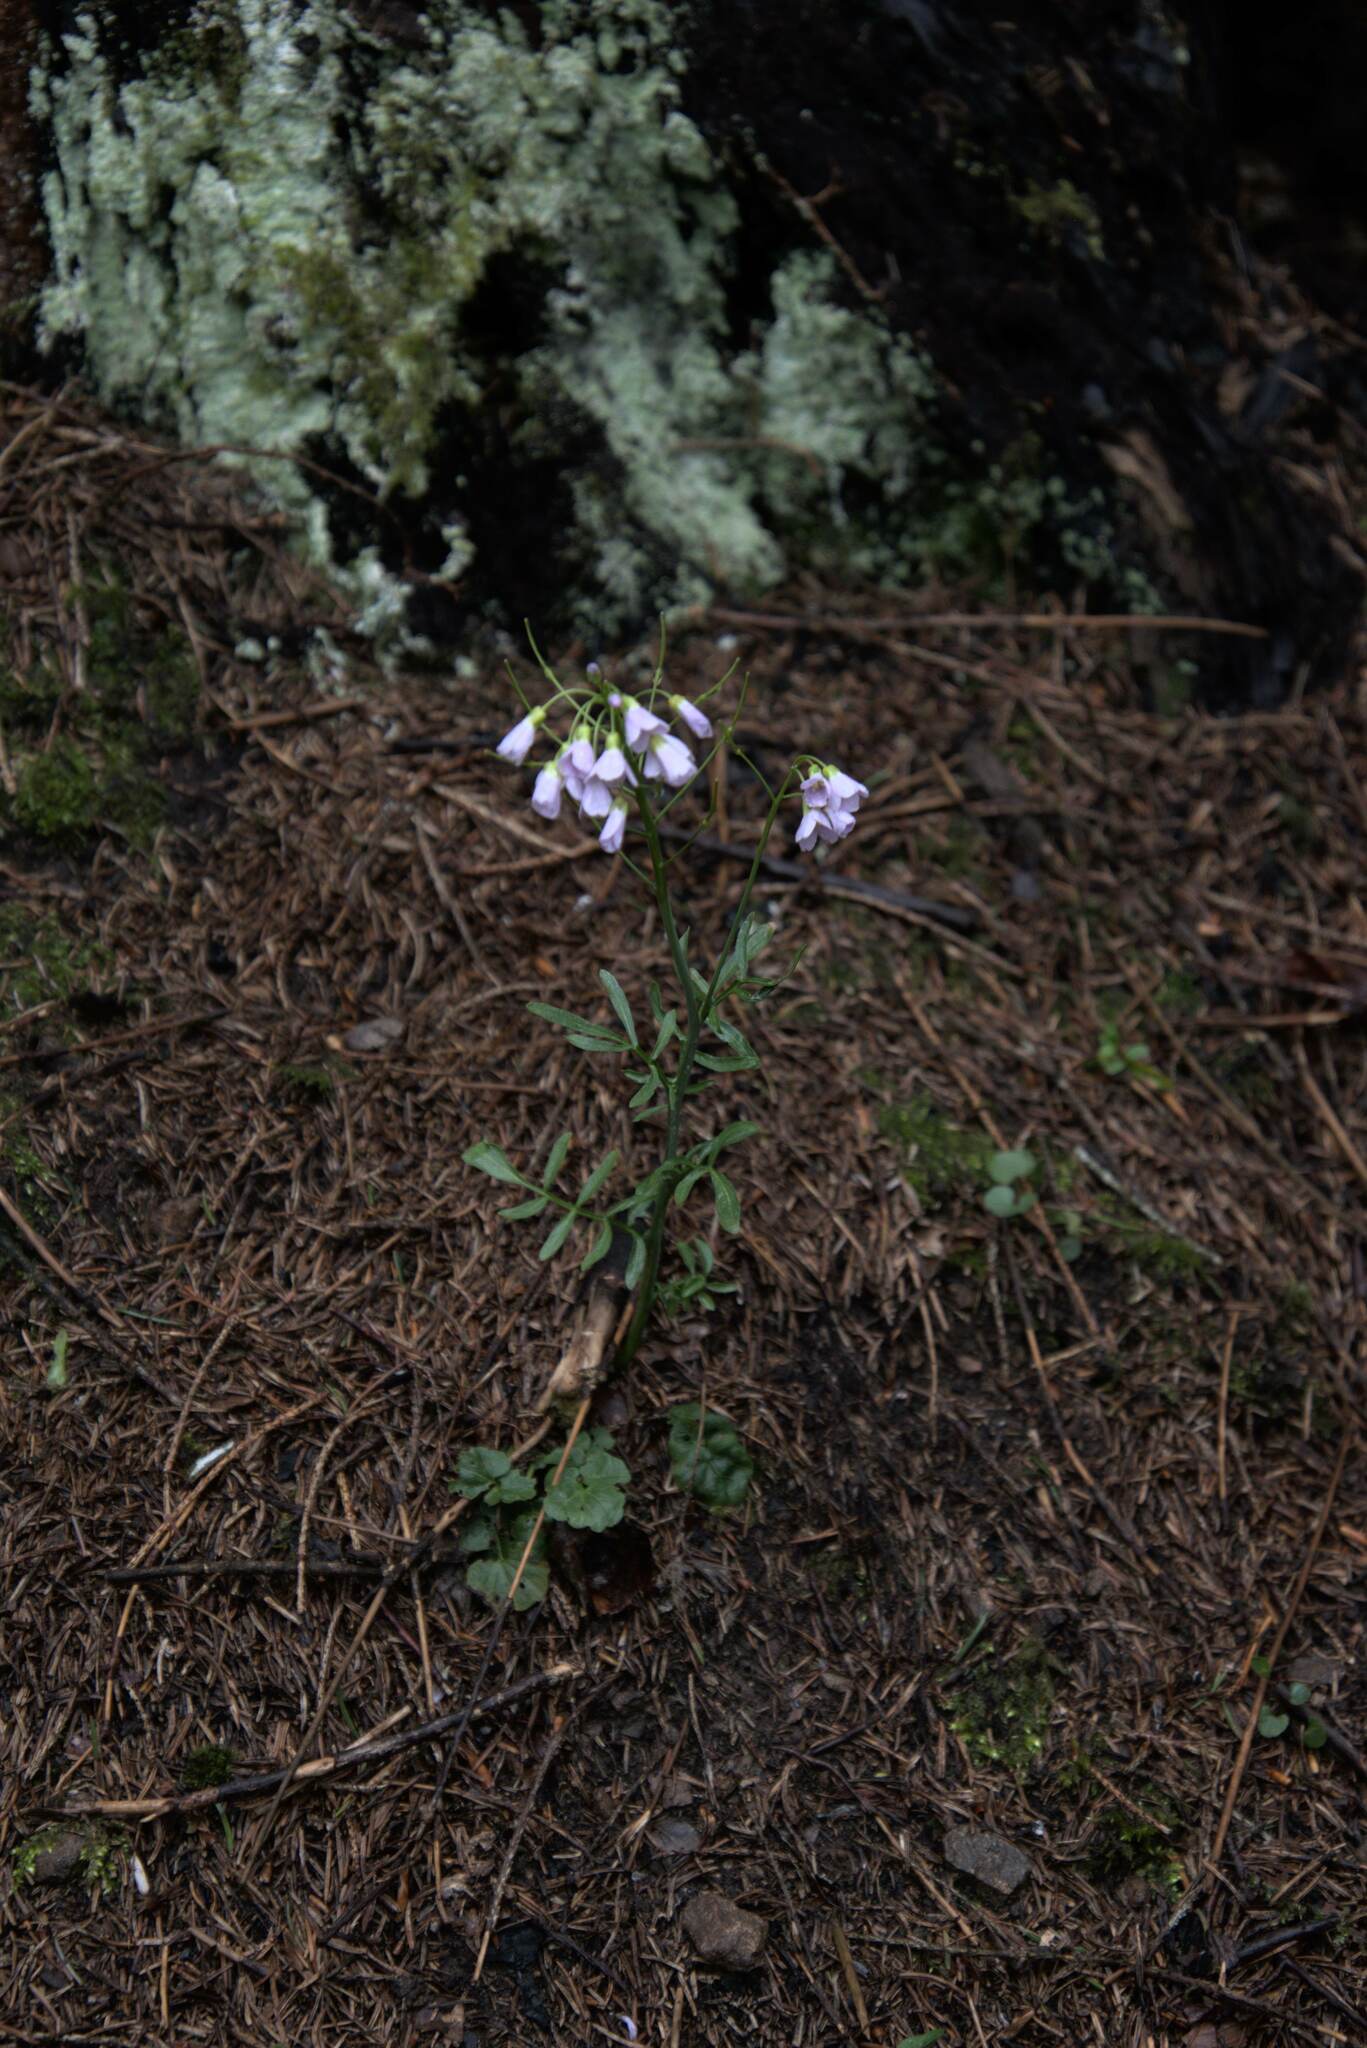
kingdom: Plantae
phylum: Tracheophyta
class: Magnoliopsida
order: Brassicales
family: Brassicaceae
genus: Cardamine
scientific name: Cardamine pratensis
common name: Cuckoo flower
